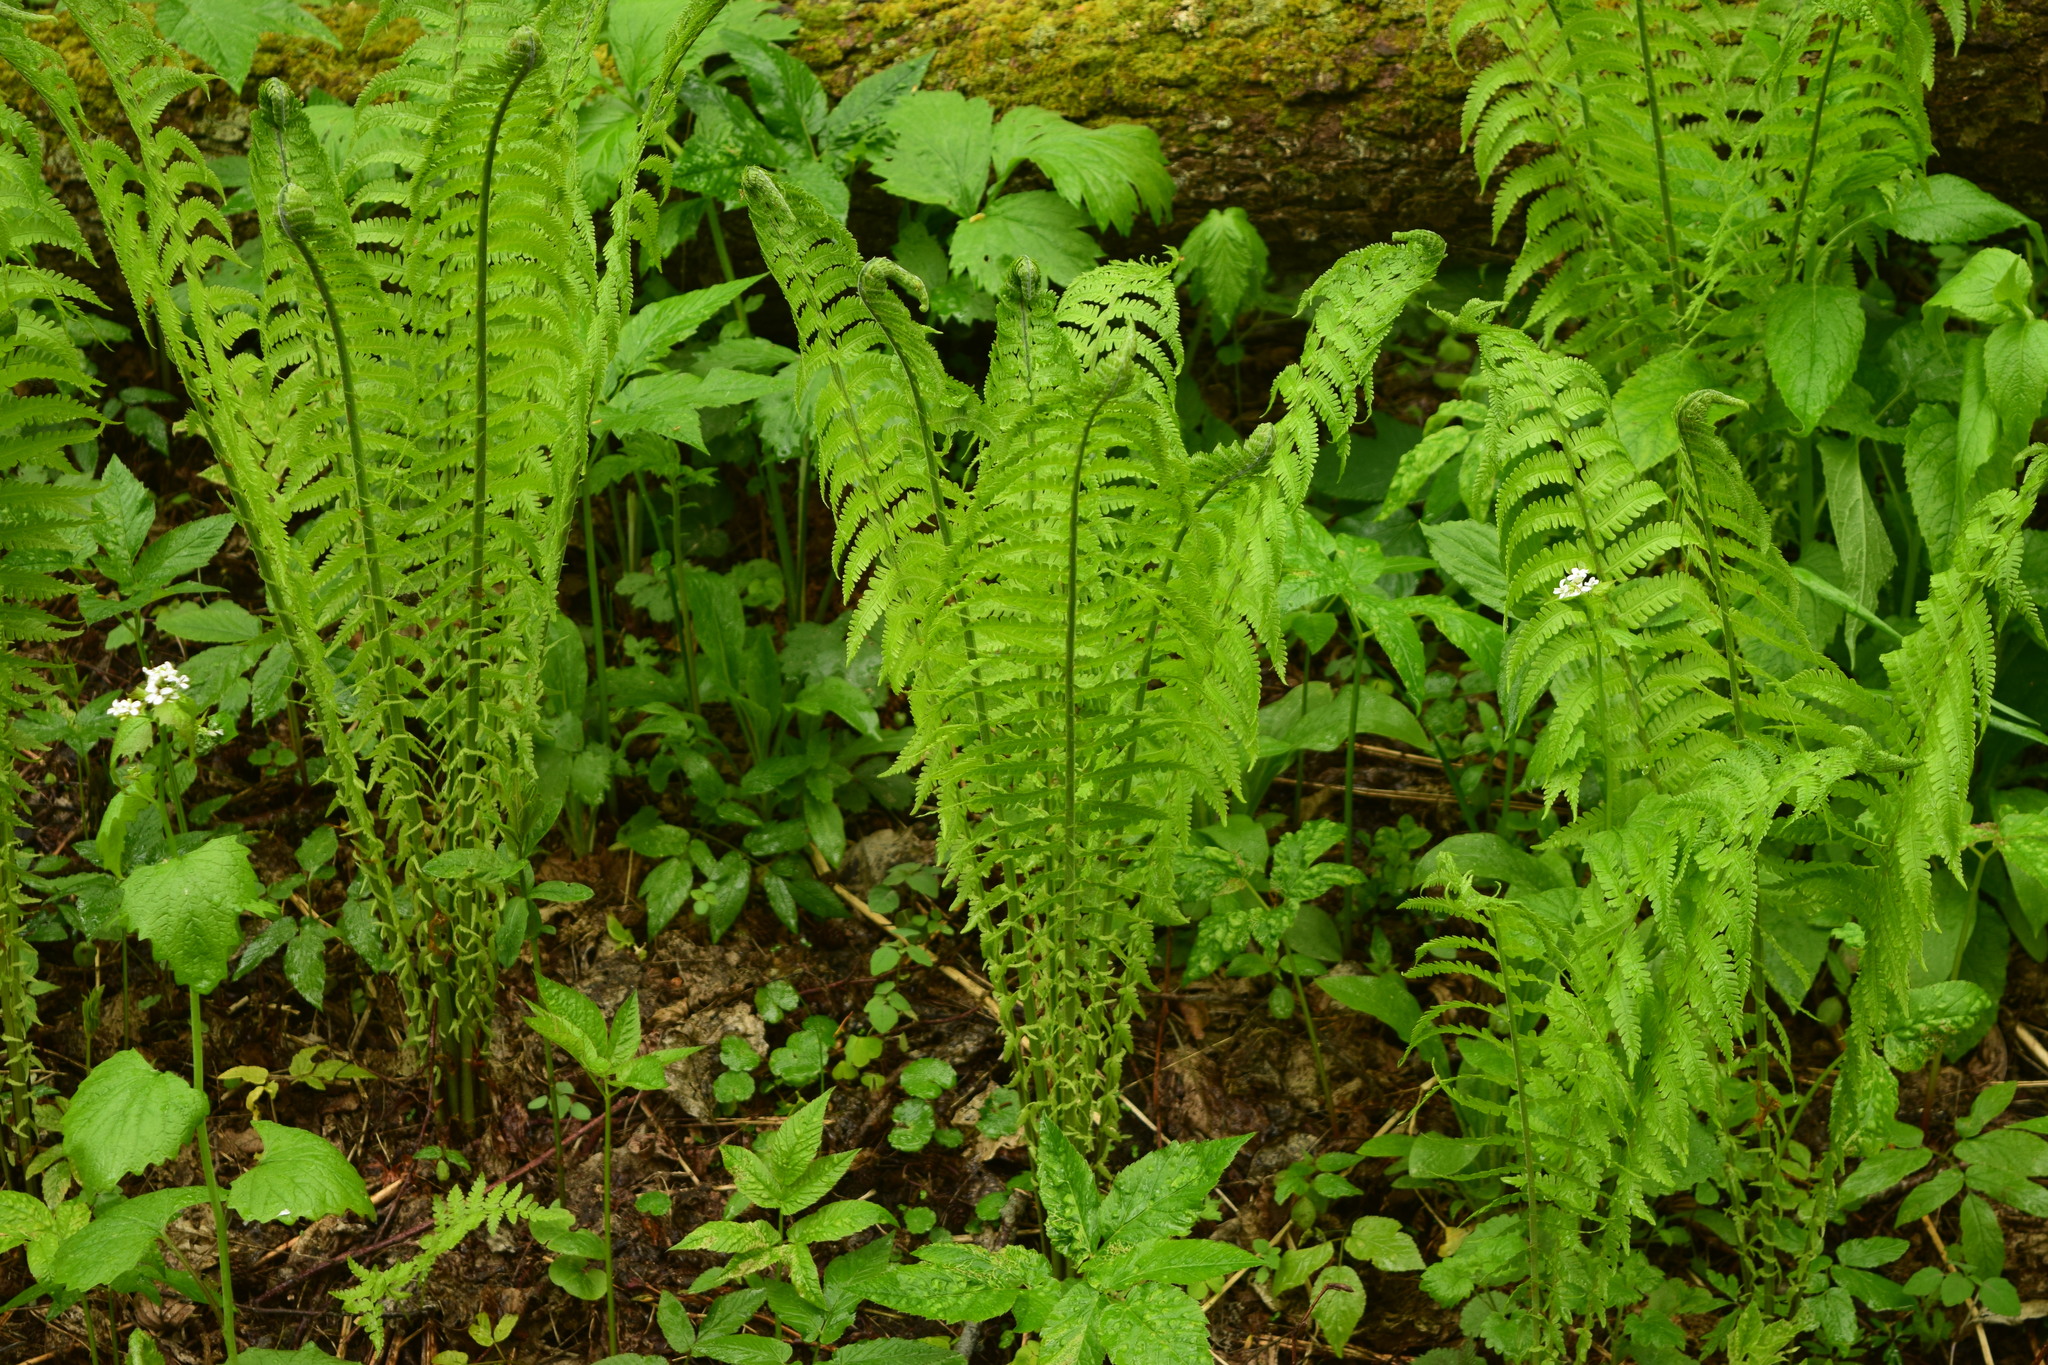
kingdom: Plantae
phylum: Tracheophyta
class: Polypodiopsida
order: Polypodiales
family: Onocleaceae
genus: Matteuccia
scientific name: Matteuccia struthiopteris
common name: Ostrich fern
